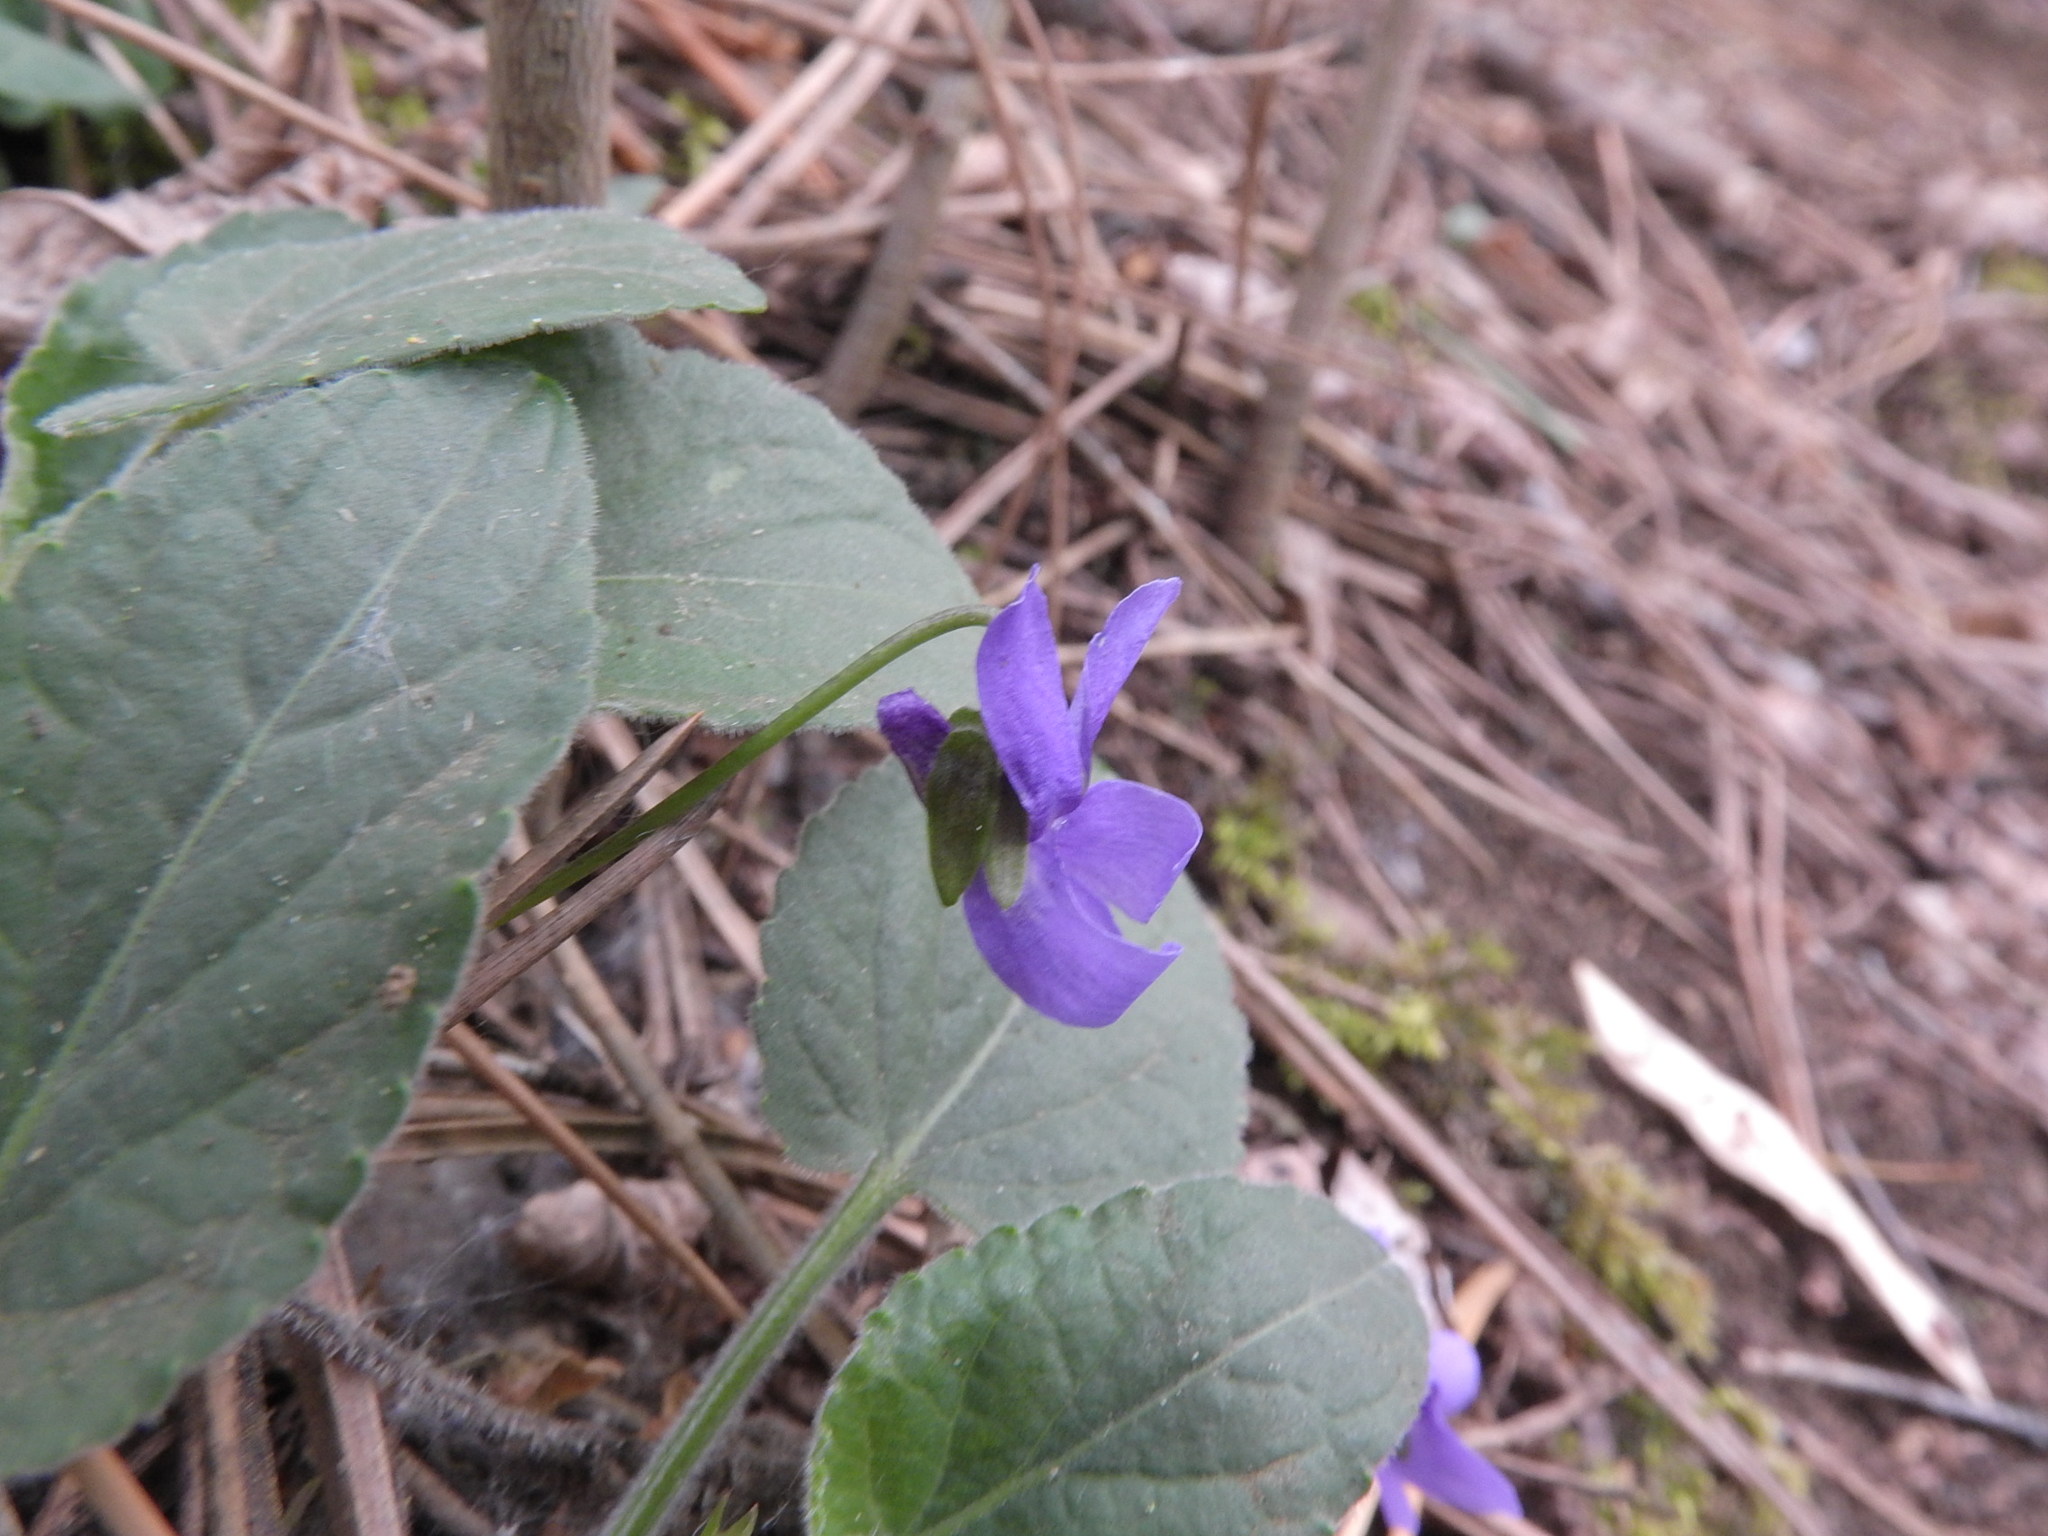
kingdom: Plantae
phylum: Tracheophyta
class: Magnoliopsida
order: Malpighiales
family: Violaceae
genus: Viola
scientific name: Viola hirta
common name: Hairy violet
